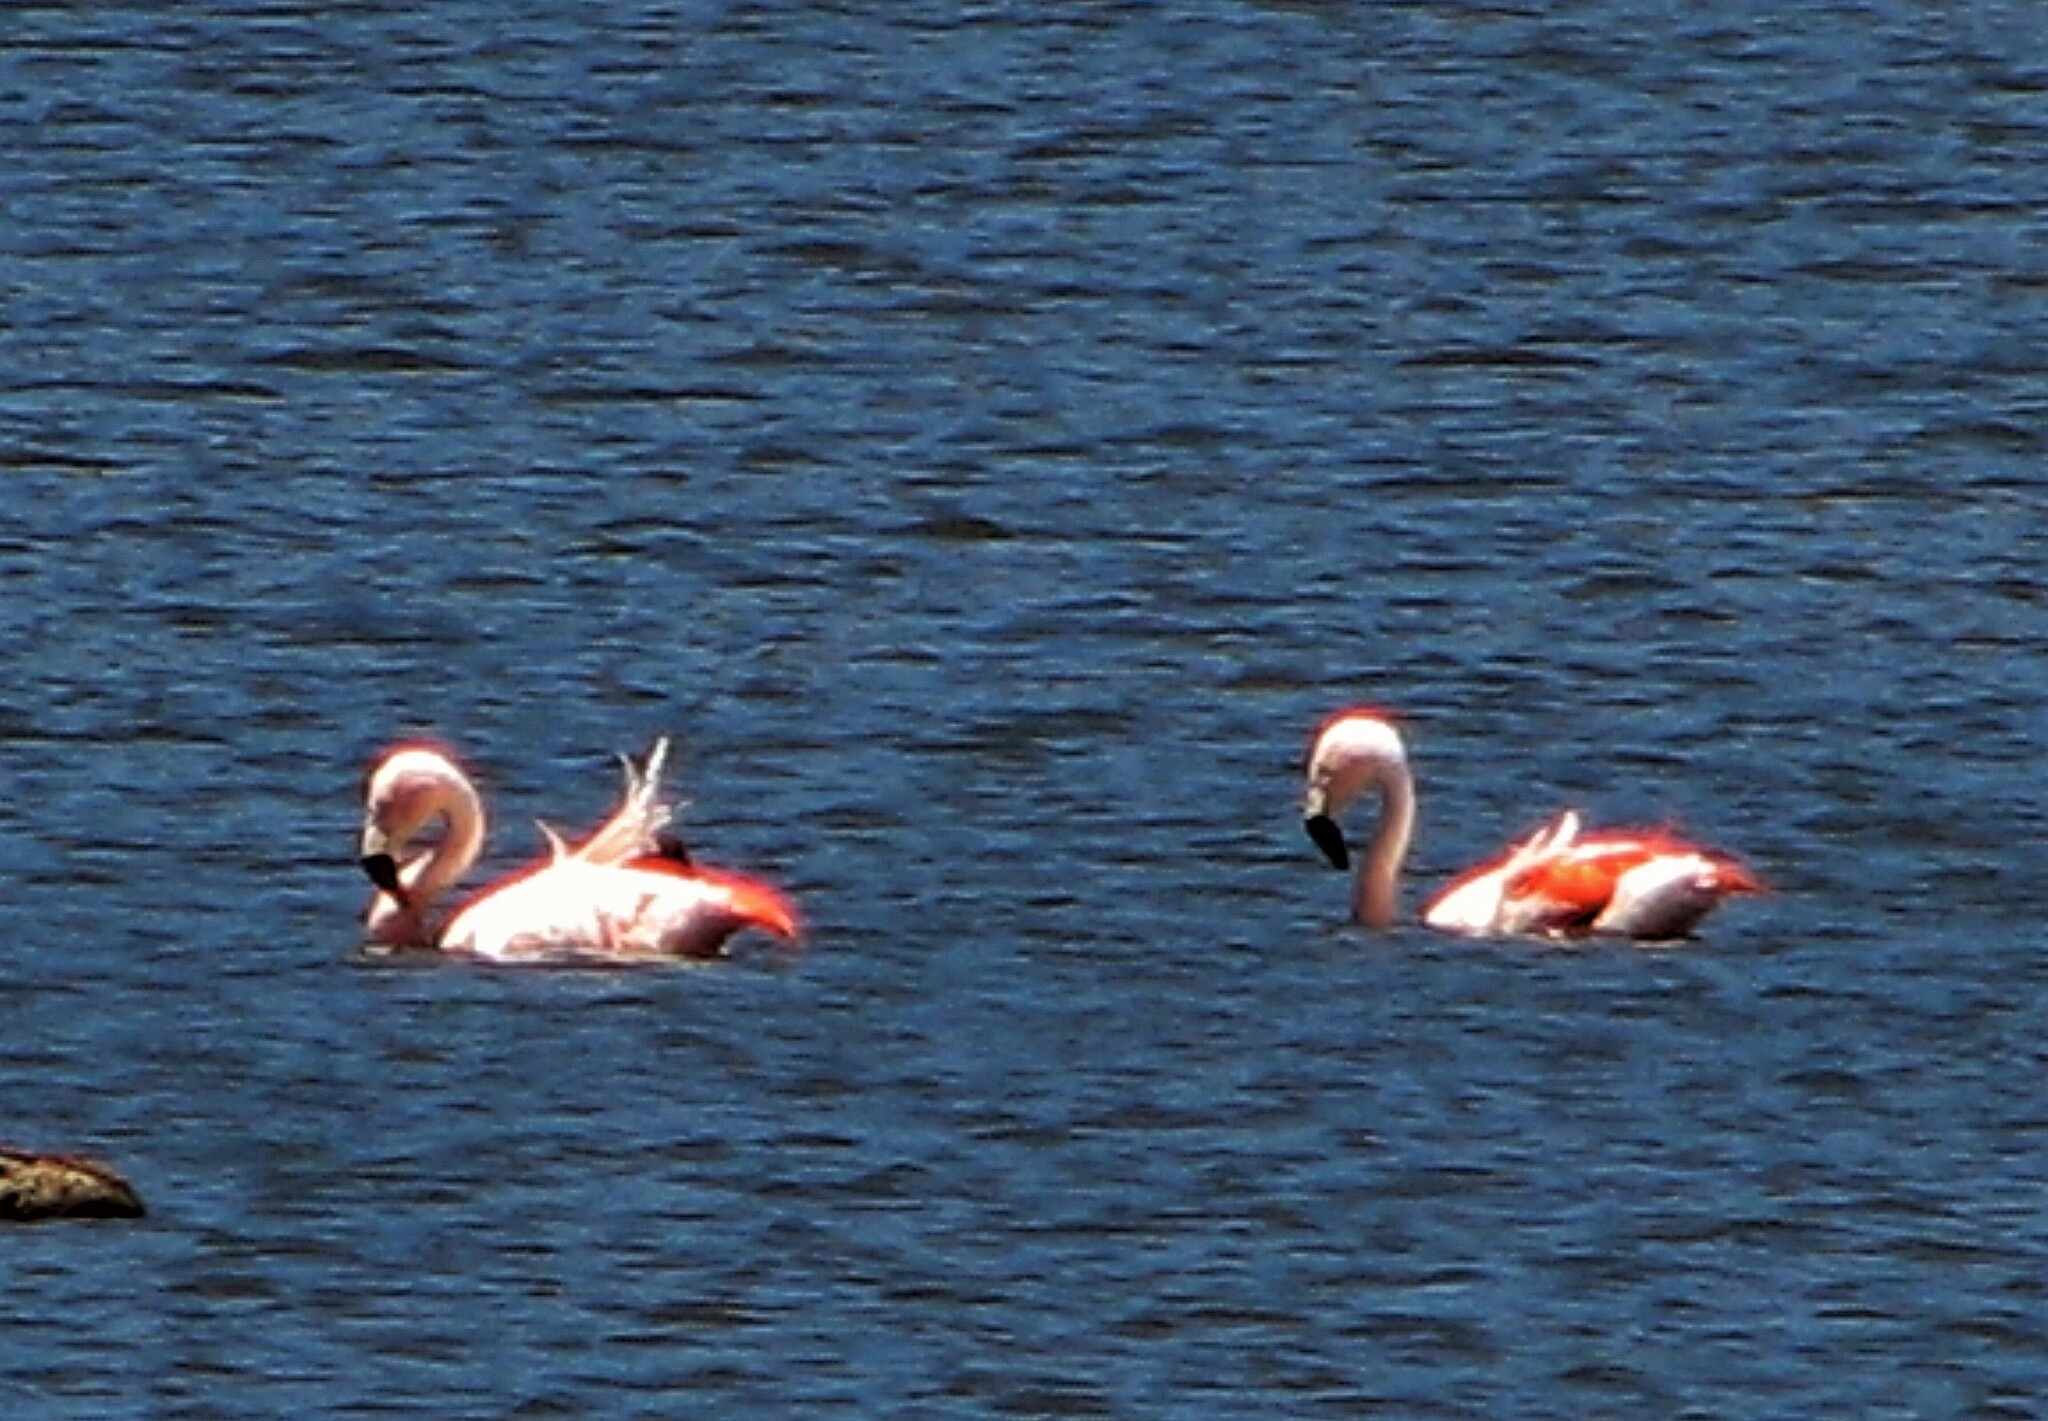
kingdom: Animalia
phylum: Chordata
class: Aves
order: Phoenicopteriformes
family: Phoenicopteridae
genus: Phoenicopterus
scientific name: Phoenicopterus chilensis
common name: Chilean flamingo
